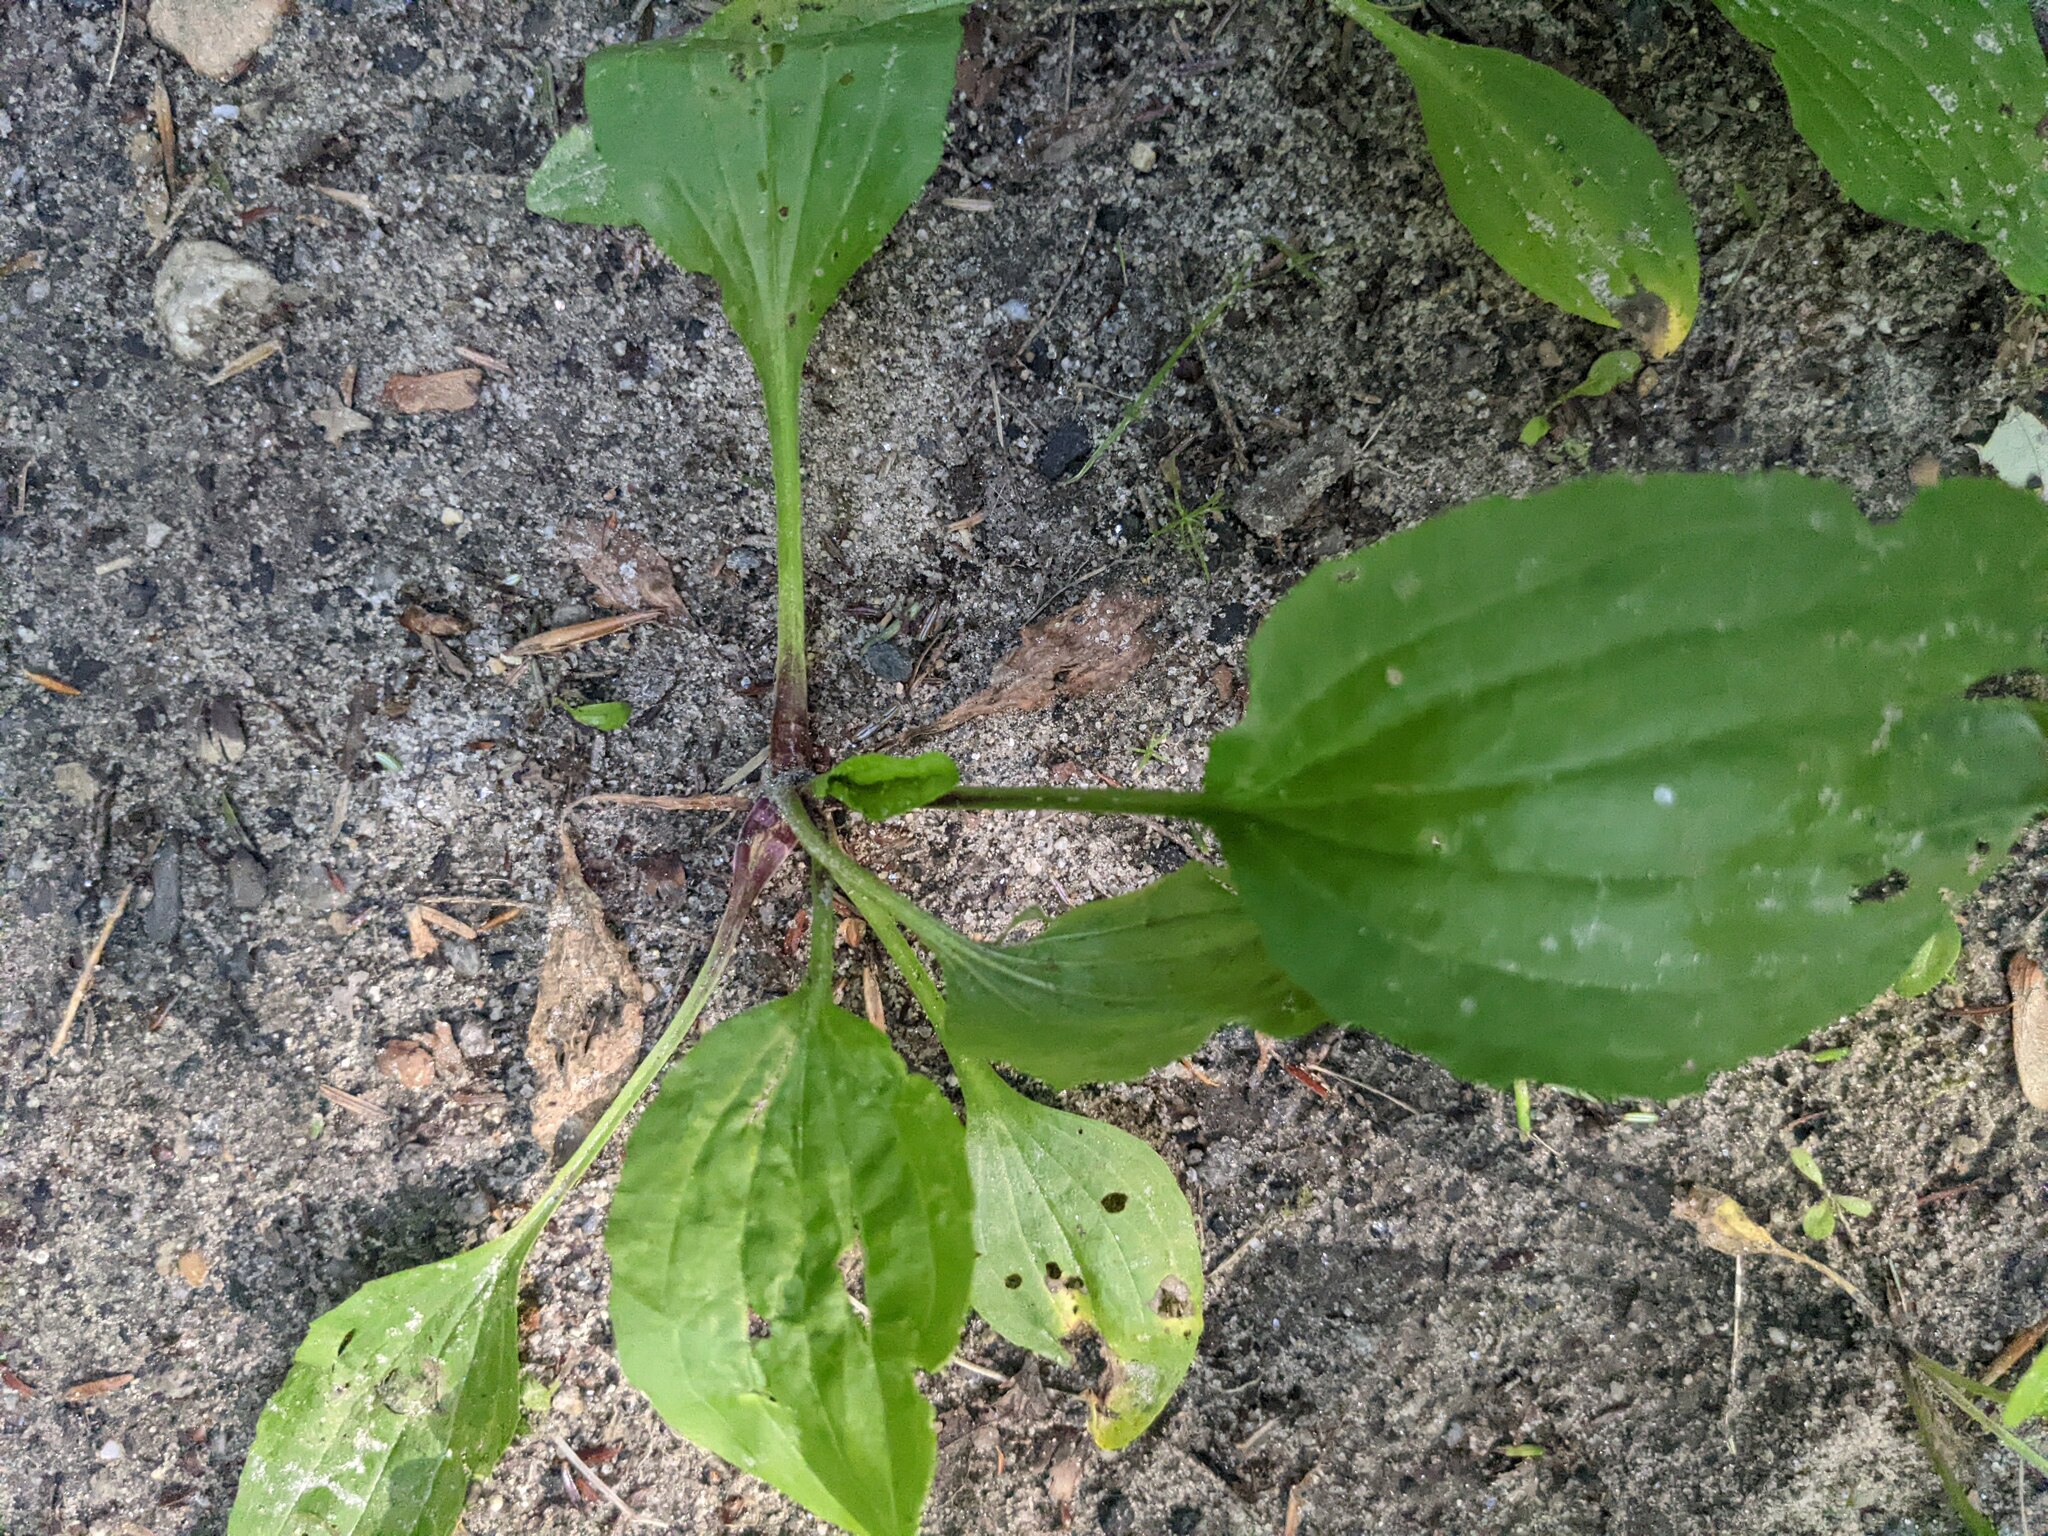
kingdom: Plantae
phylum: Tracheophyta
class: Magnoliopsida
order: Lamiales
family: Plantaginaceae
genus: Plantago
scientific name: Plantago rugelii
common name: American plantain
